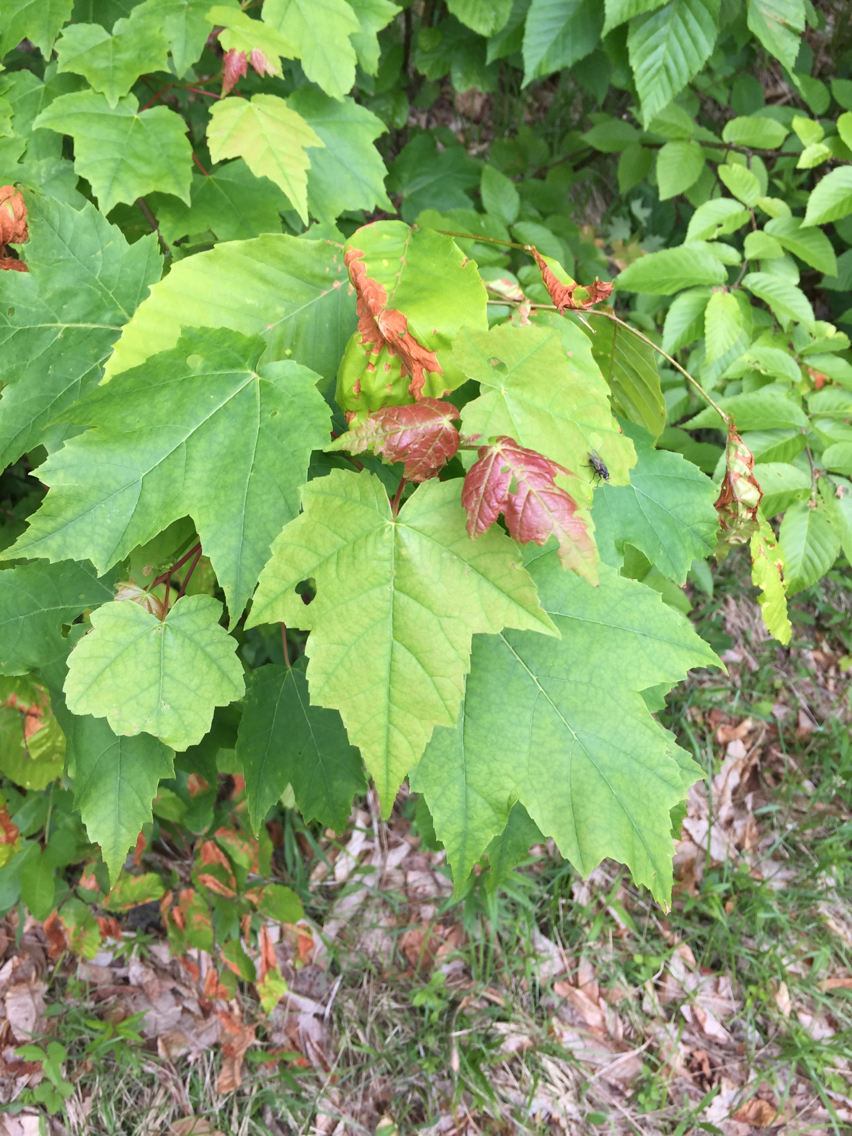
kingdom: Plantae
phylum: Tracheophyta
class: Magnoliopsida
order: Sapindales
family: Sapindaceae
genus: Acer
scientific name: Acer rubrum
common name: Red maple
